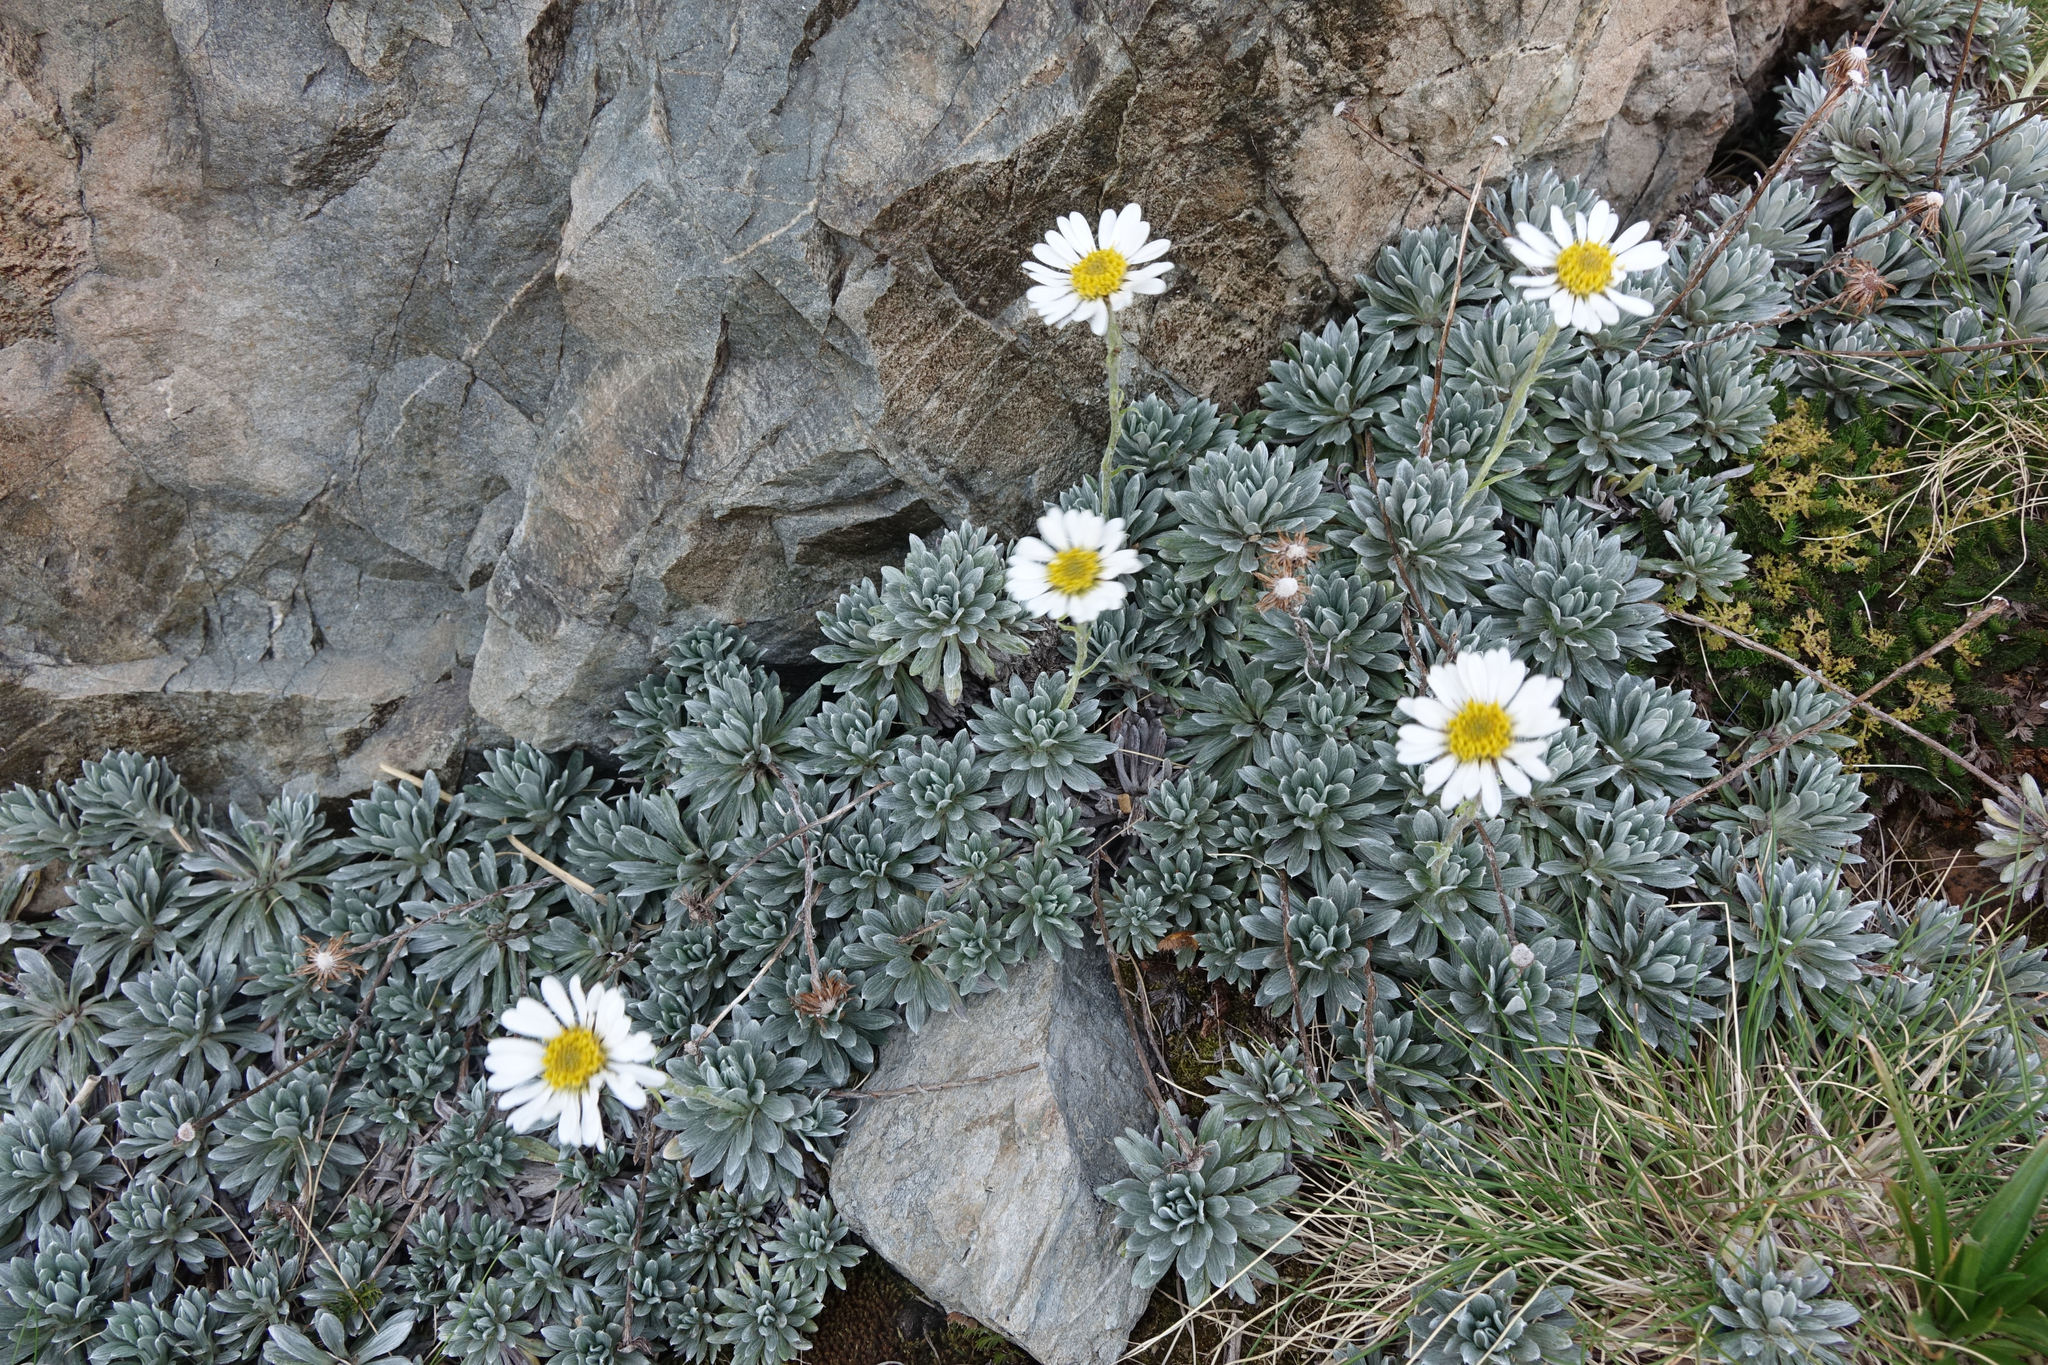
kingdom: Plantae
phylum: Tracheophyta
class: Magnoliopsida
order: Asterales
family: Asteraceae
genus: Celmisia
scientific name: Celmisia hectorii
